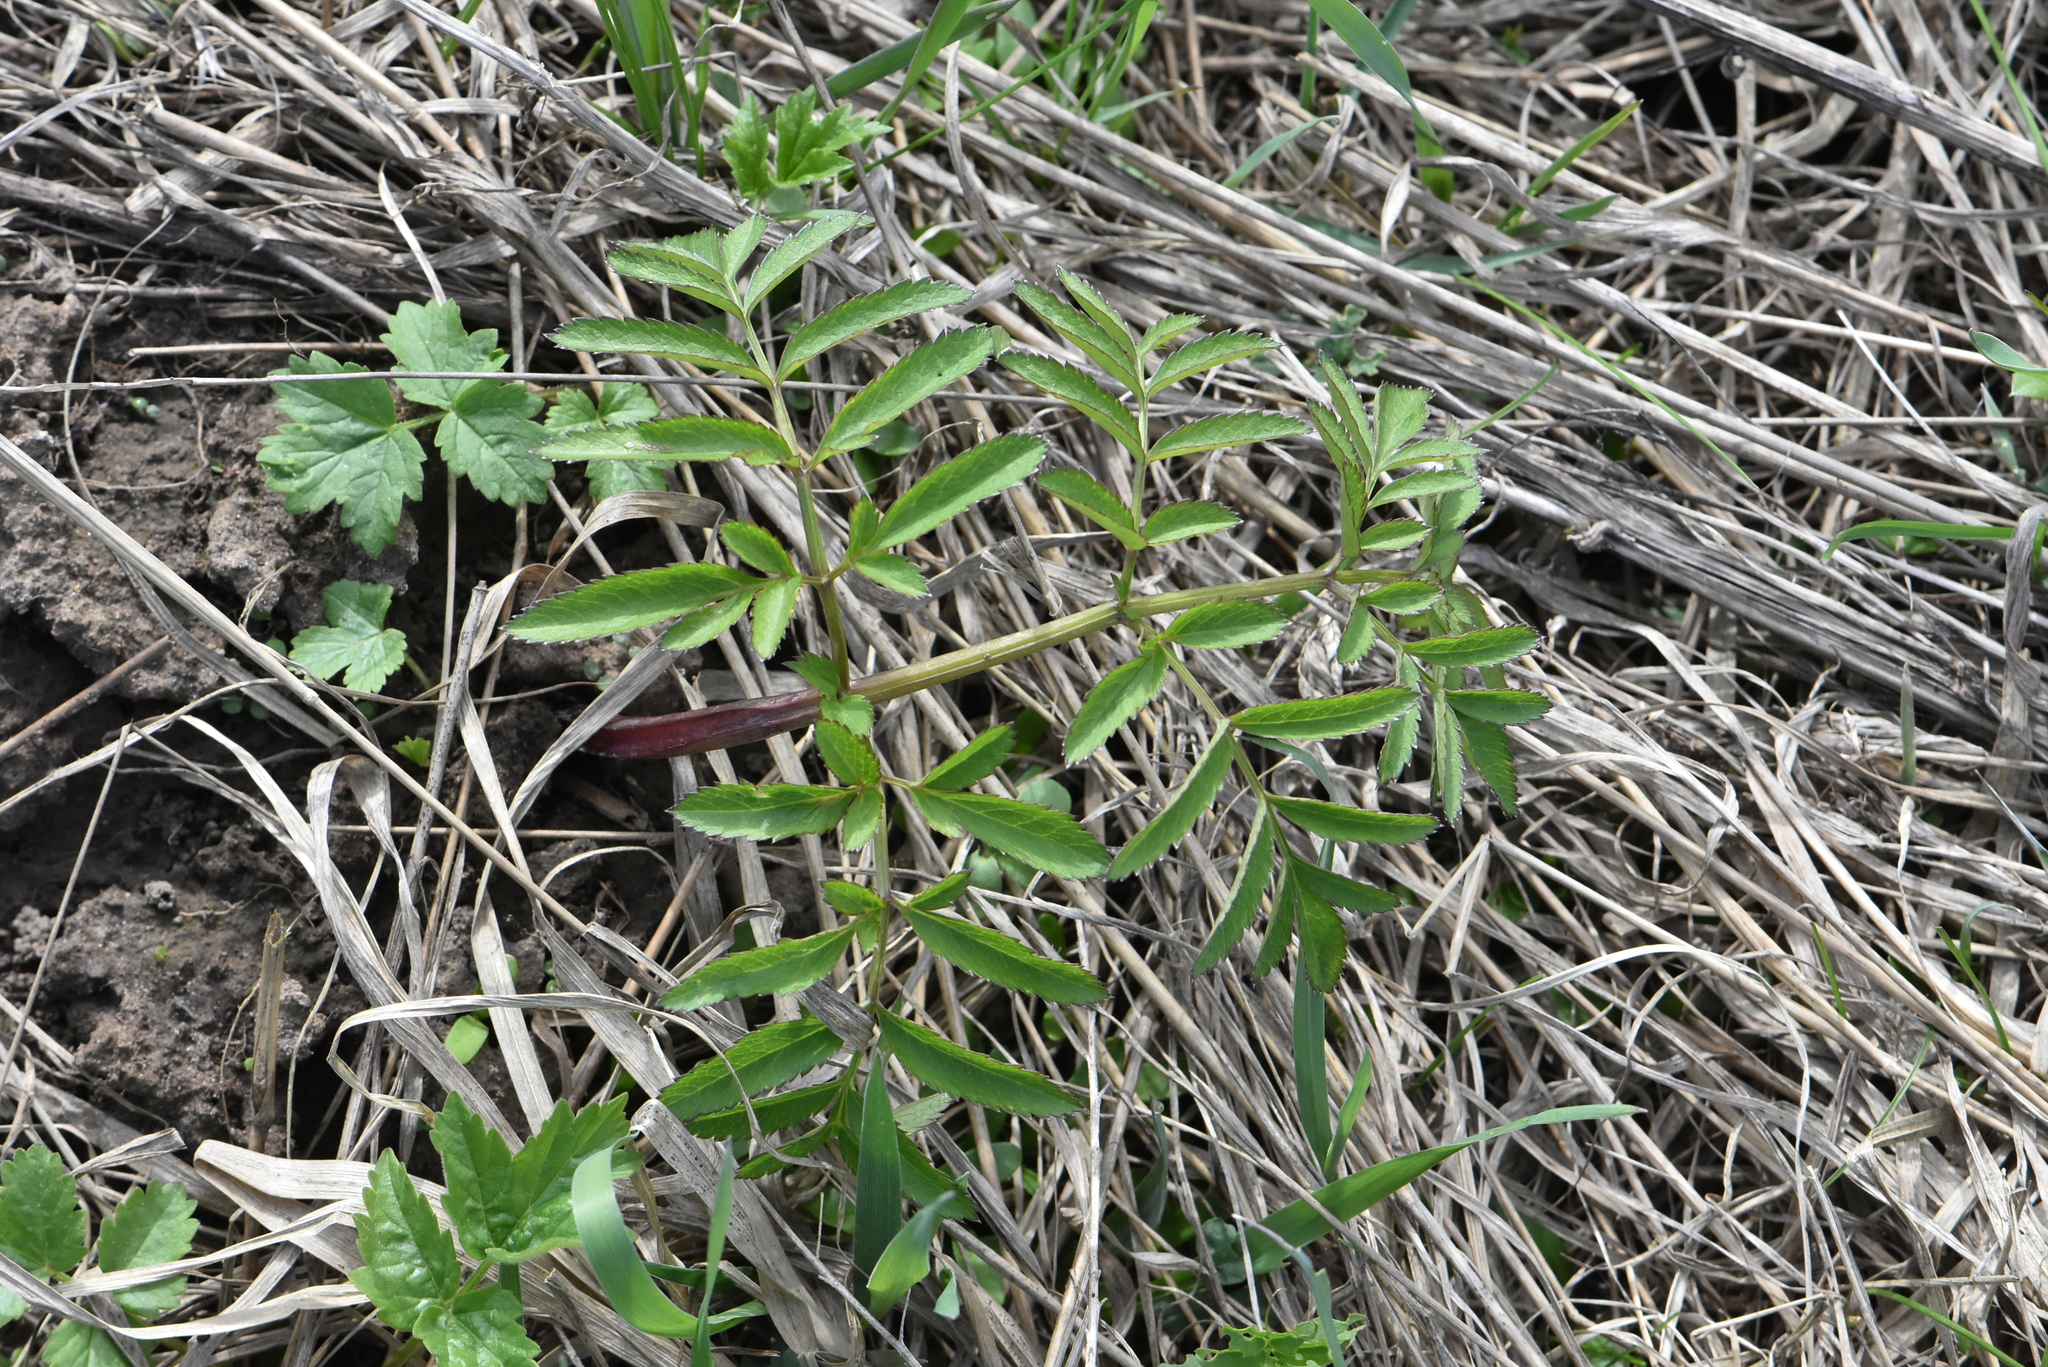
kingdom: Plantae
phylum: Tracheophyta
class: Magnoliopsida
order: Apiales
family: Apiaceae
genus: Angelica
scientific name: Angelica sylvestris
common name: Wild angelica
